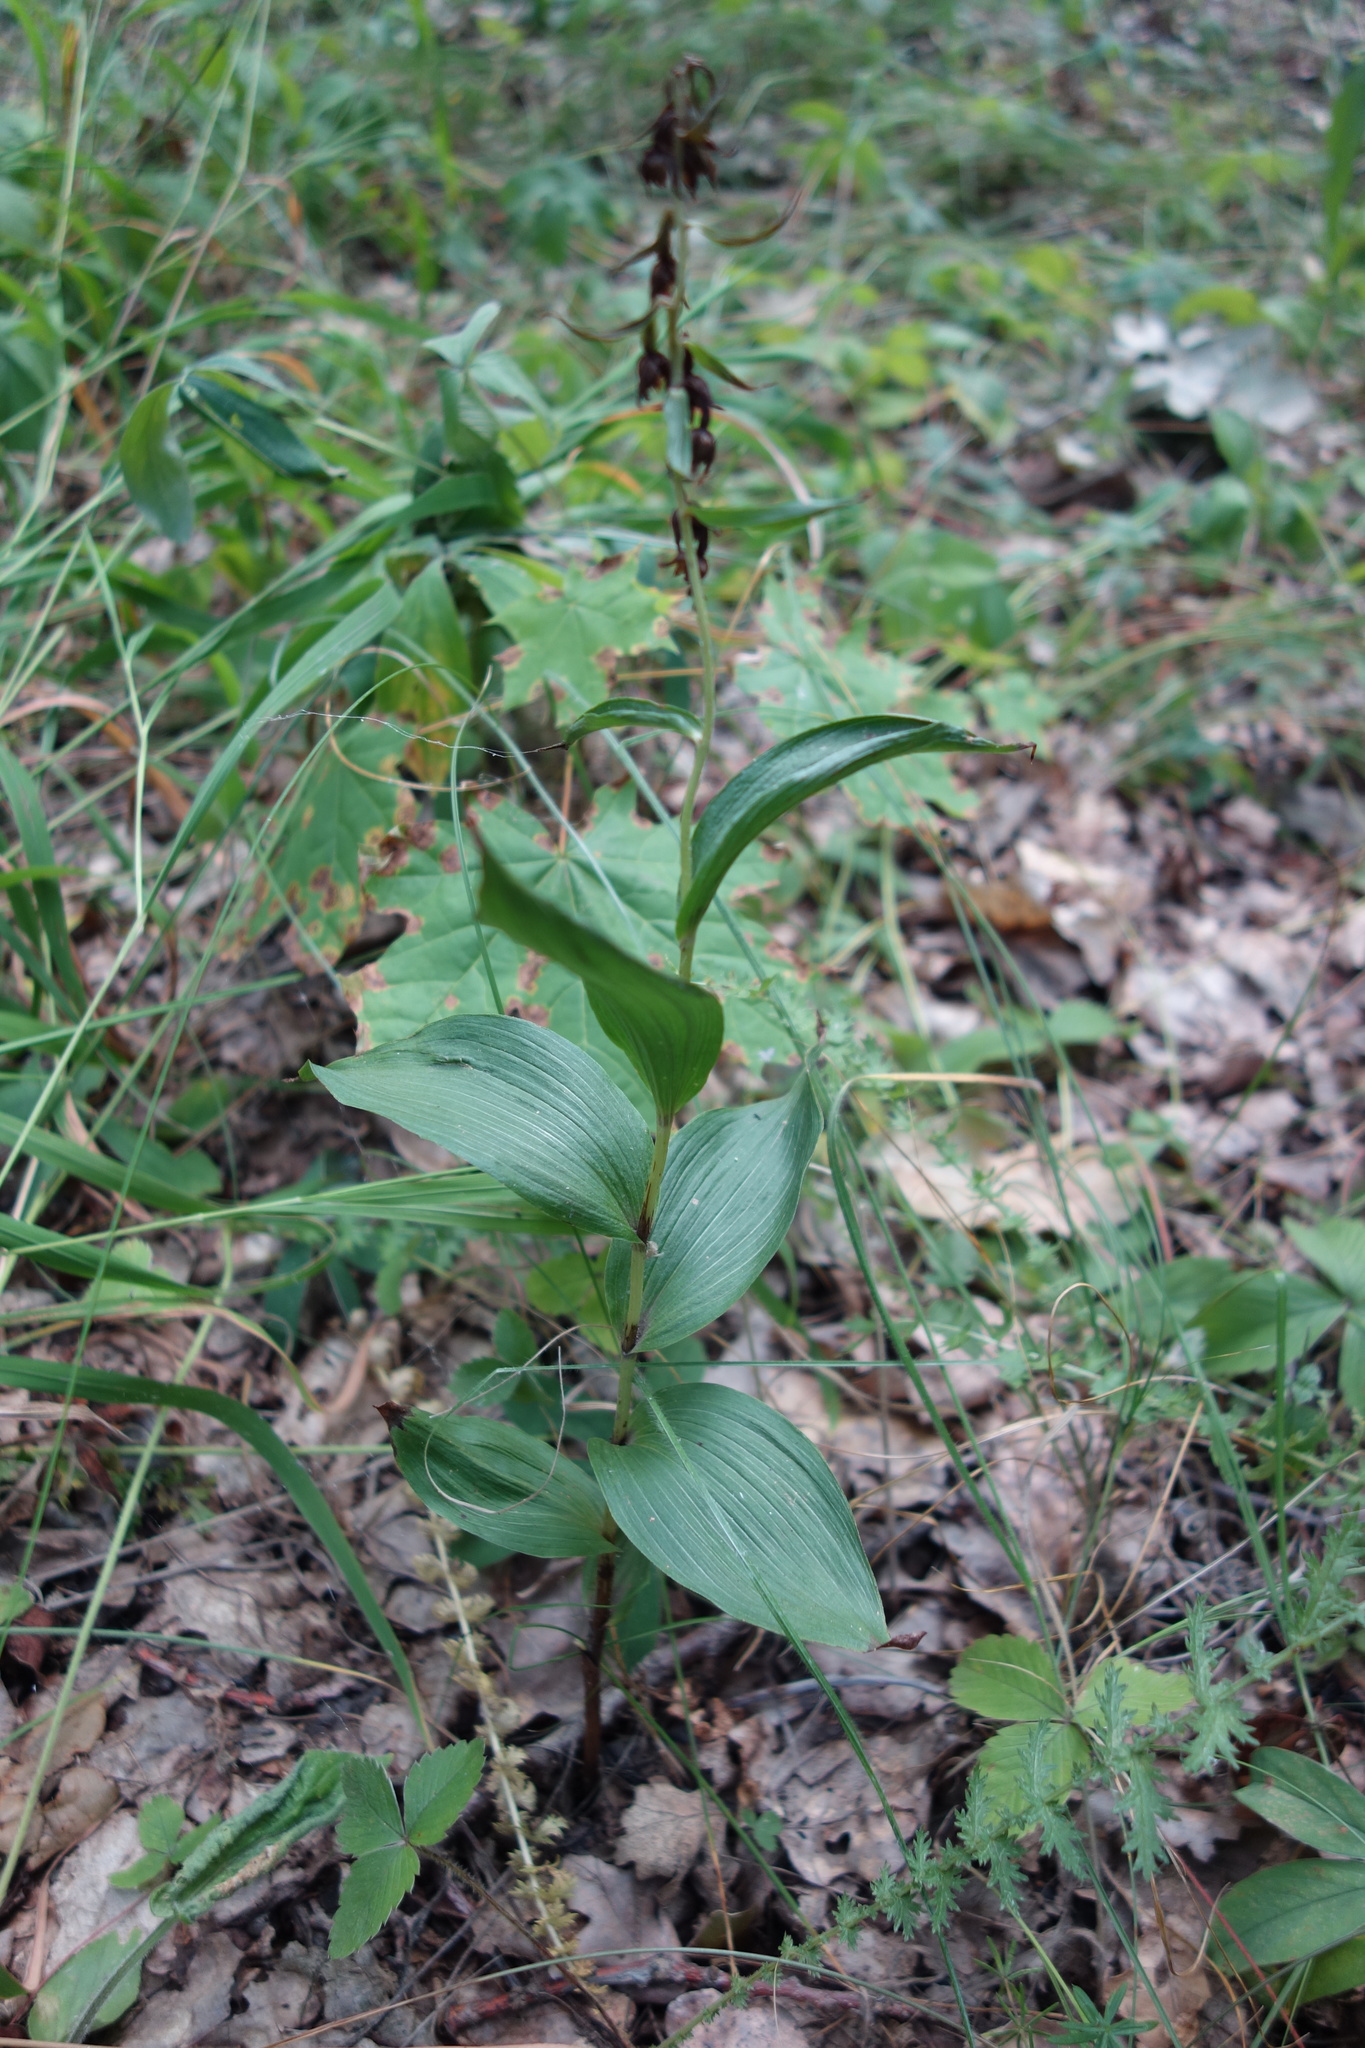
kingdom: Plantae
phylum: Tracheophyta
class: Liliopsida
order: Asparagales
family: Orchidaceae
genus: Epipactis
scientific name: Epipactis helleborine
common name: Broad-leaved helleborine
